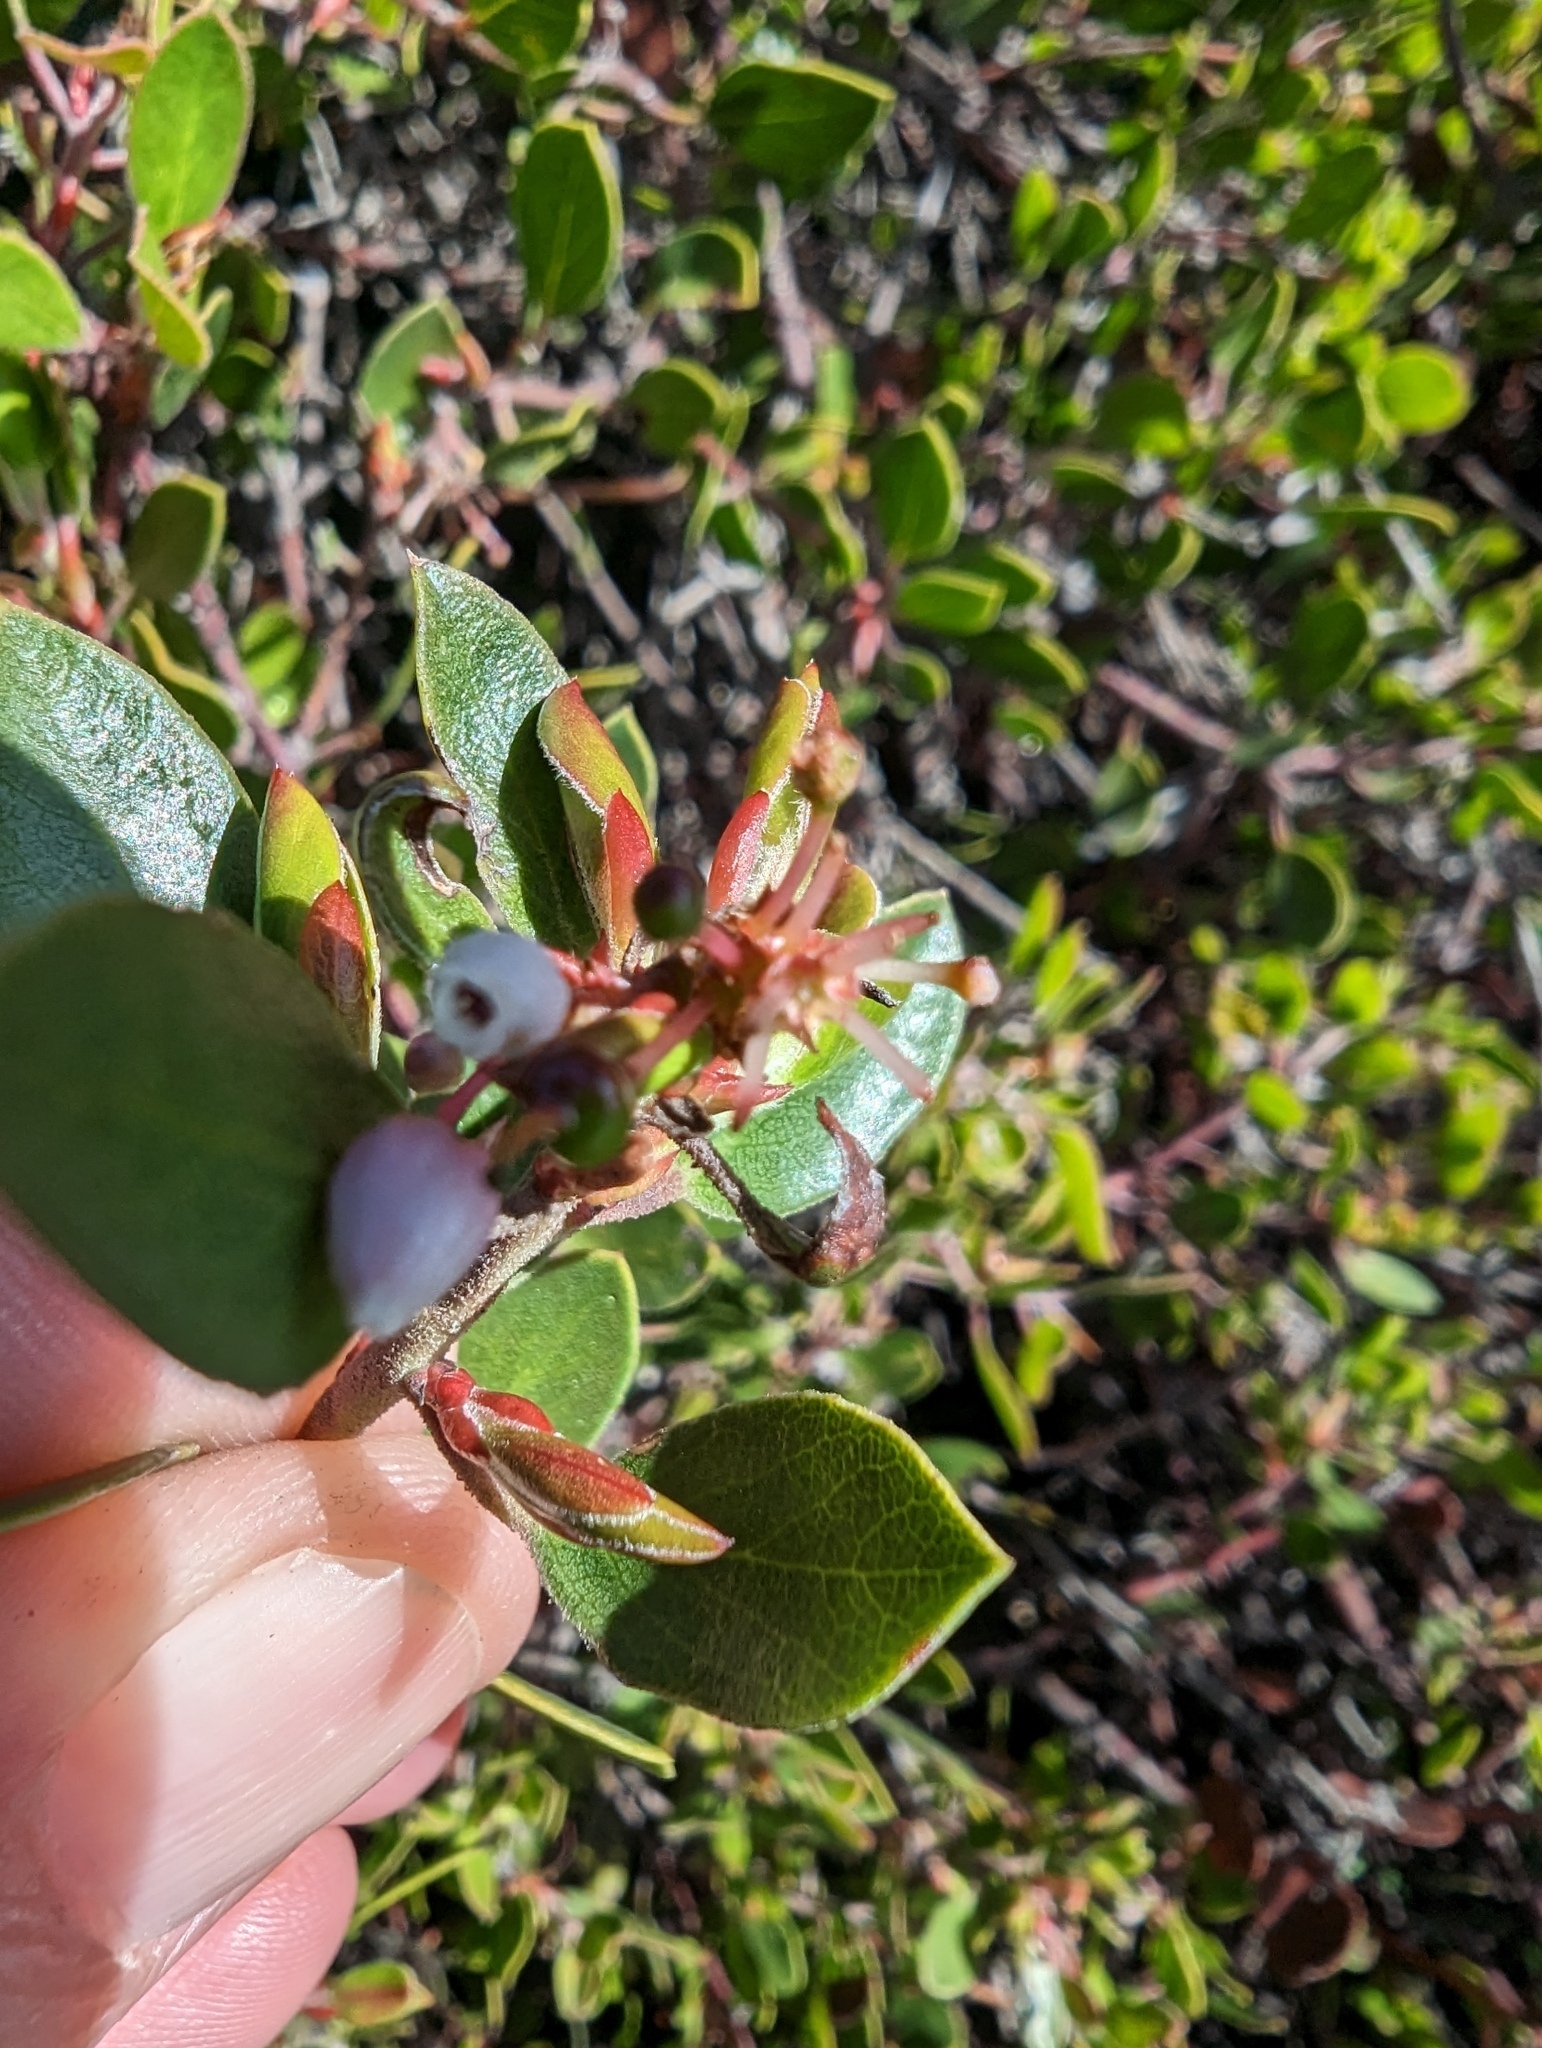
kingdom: Plantae
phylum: Tracheophyta
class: Magnoliopsida
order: Ericales
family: Ericaceae
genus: Arctostaphylos
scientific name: Arctostaphylos hookeri
